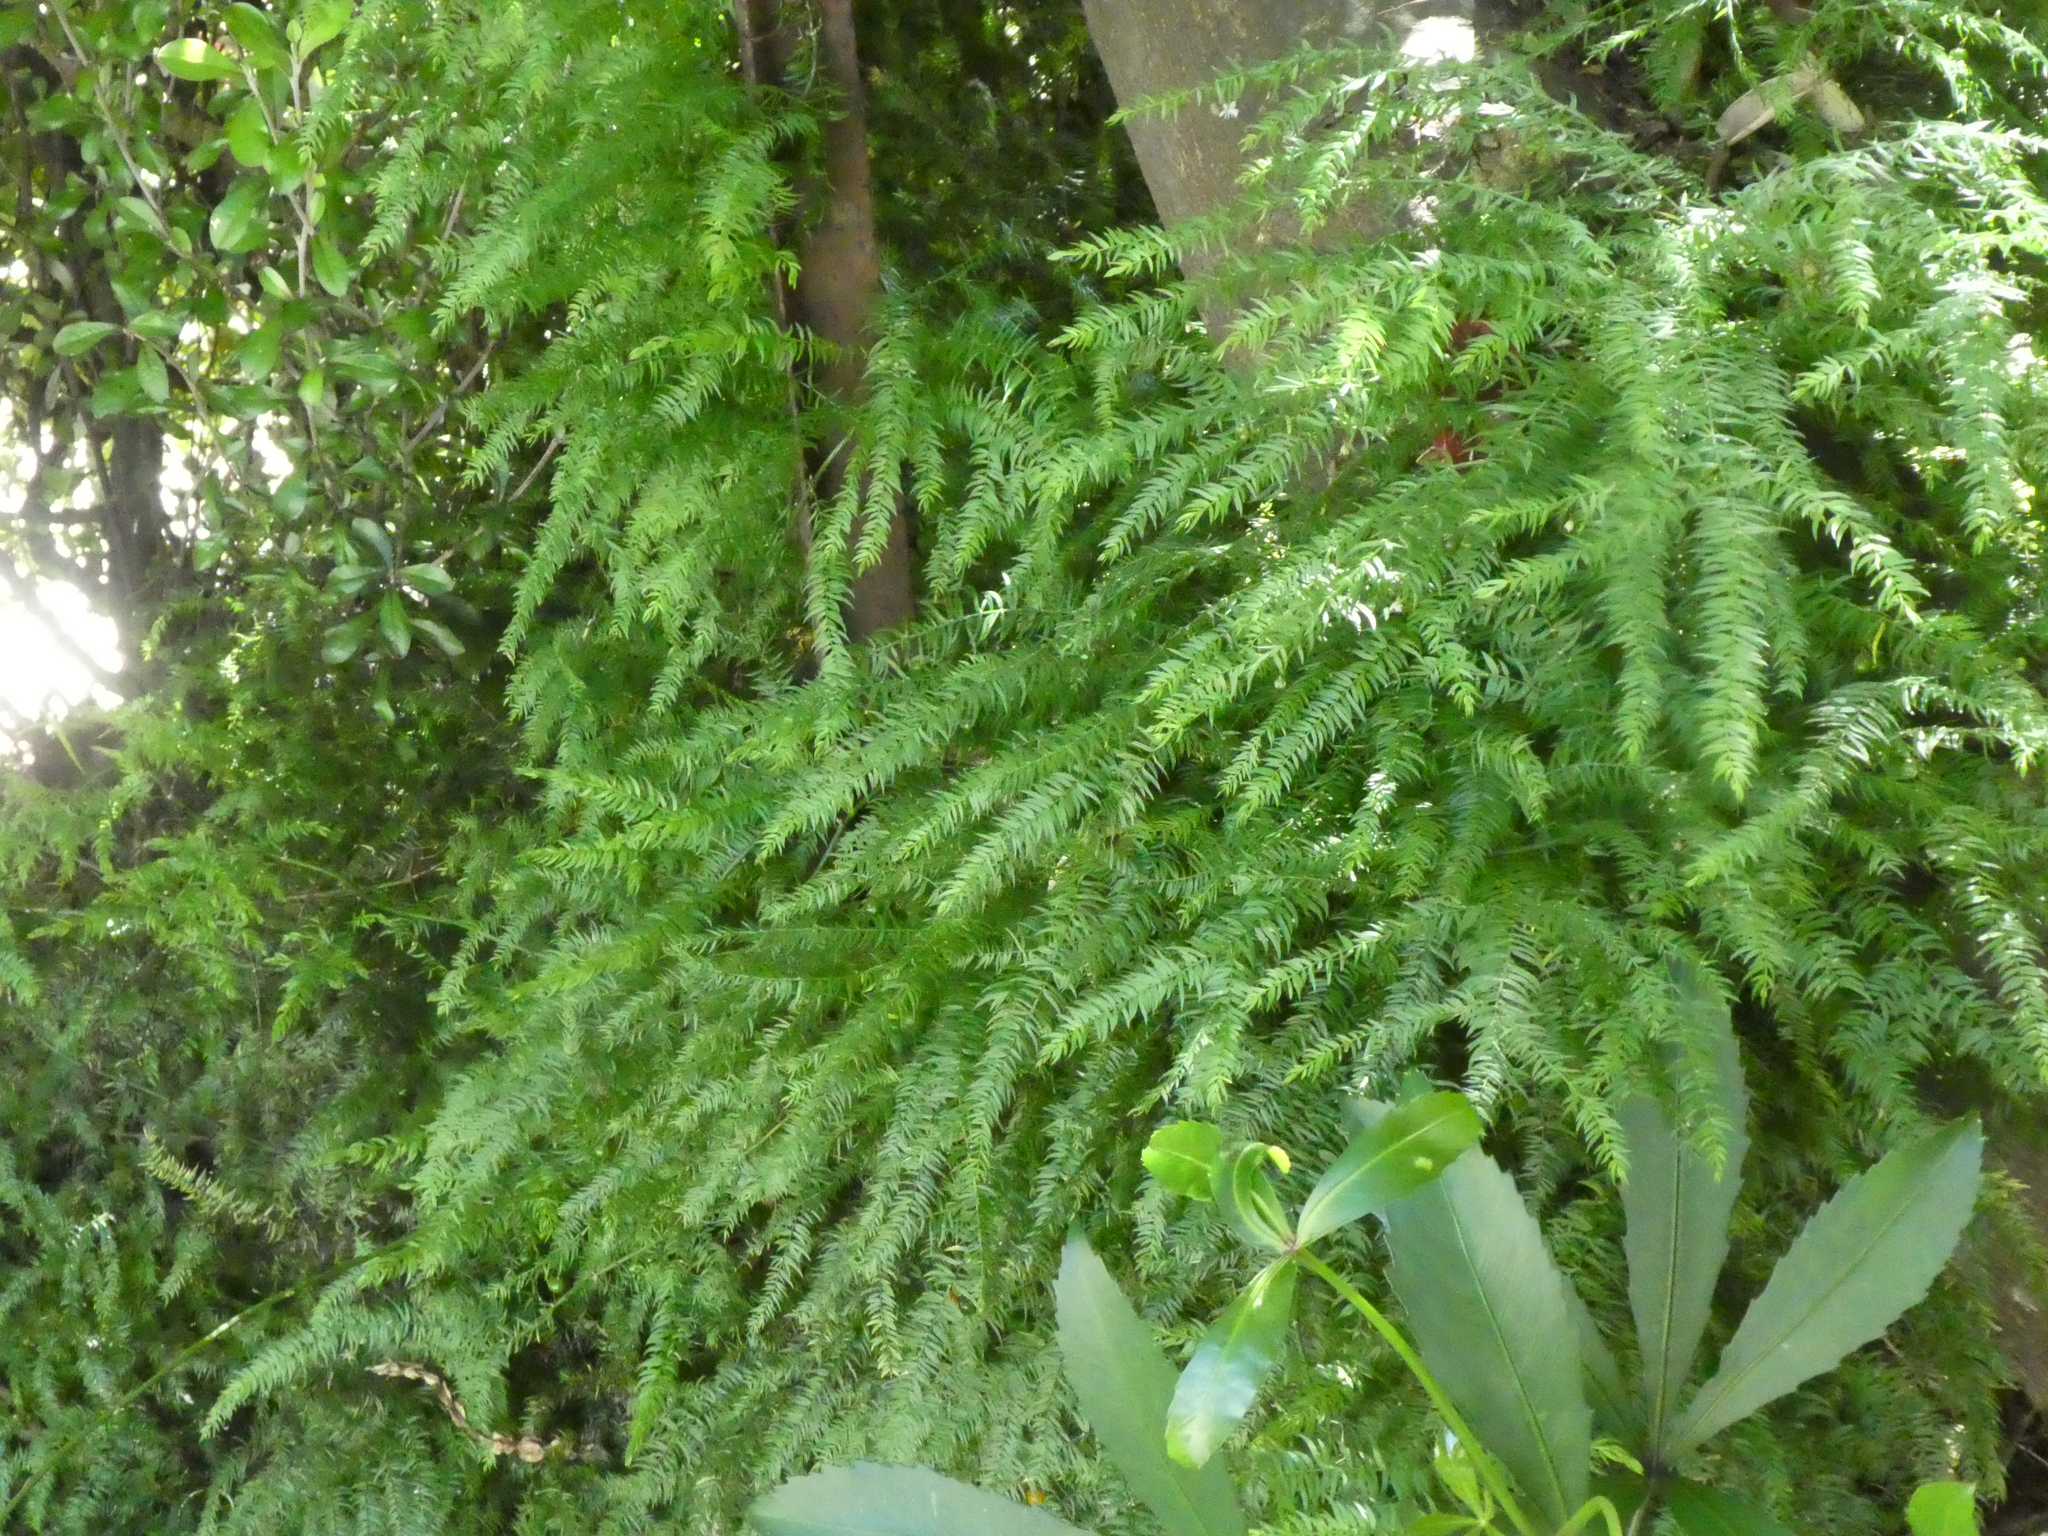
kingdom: Plantae
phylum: Tracheophyta
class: Liliopsida
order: Asparagales
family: Asparagaceae
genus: Asparagus
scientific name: Asparagus scandens
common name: Asparagus-fern
